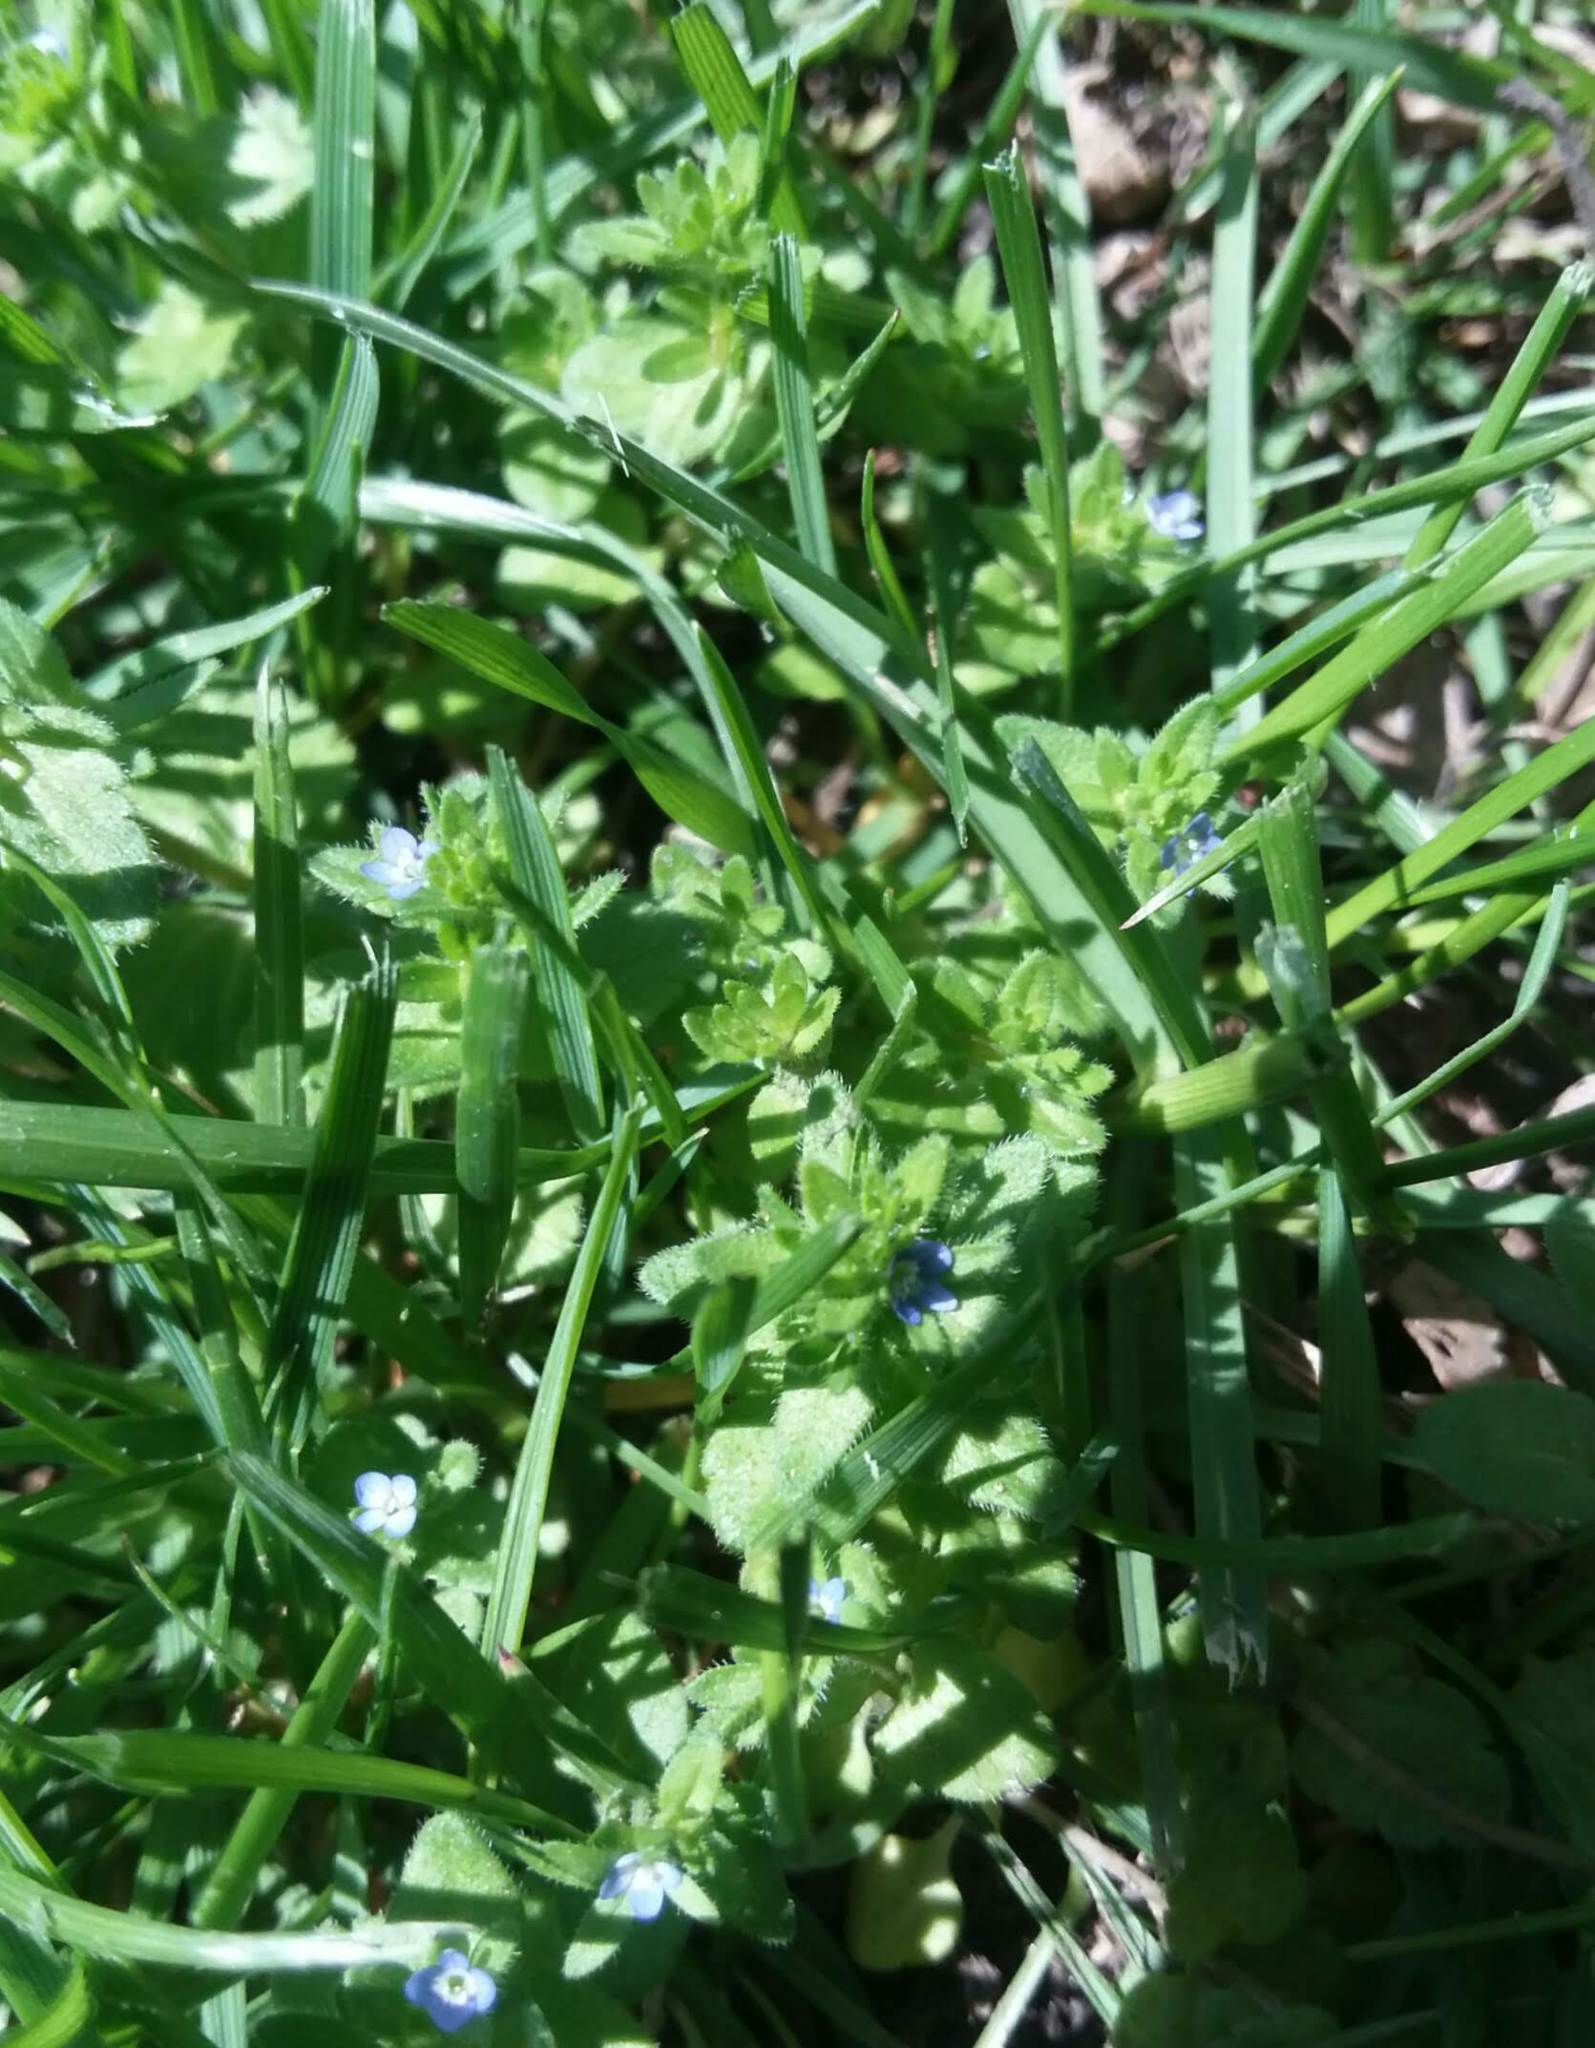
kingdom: Plantae
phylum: Tracheophyta
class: Magnoliopsida
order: Lamiales
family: Plantaginaceae
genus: Veronica
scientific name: Veronica arvensis
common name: Corn speedwell
